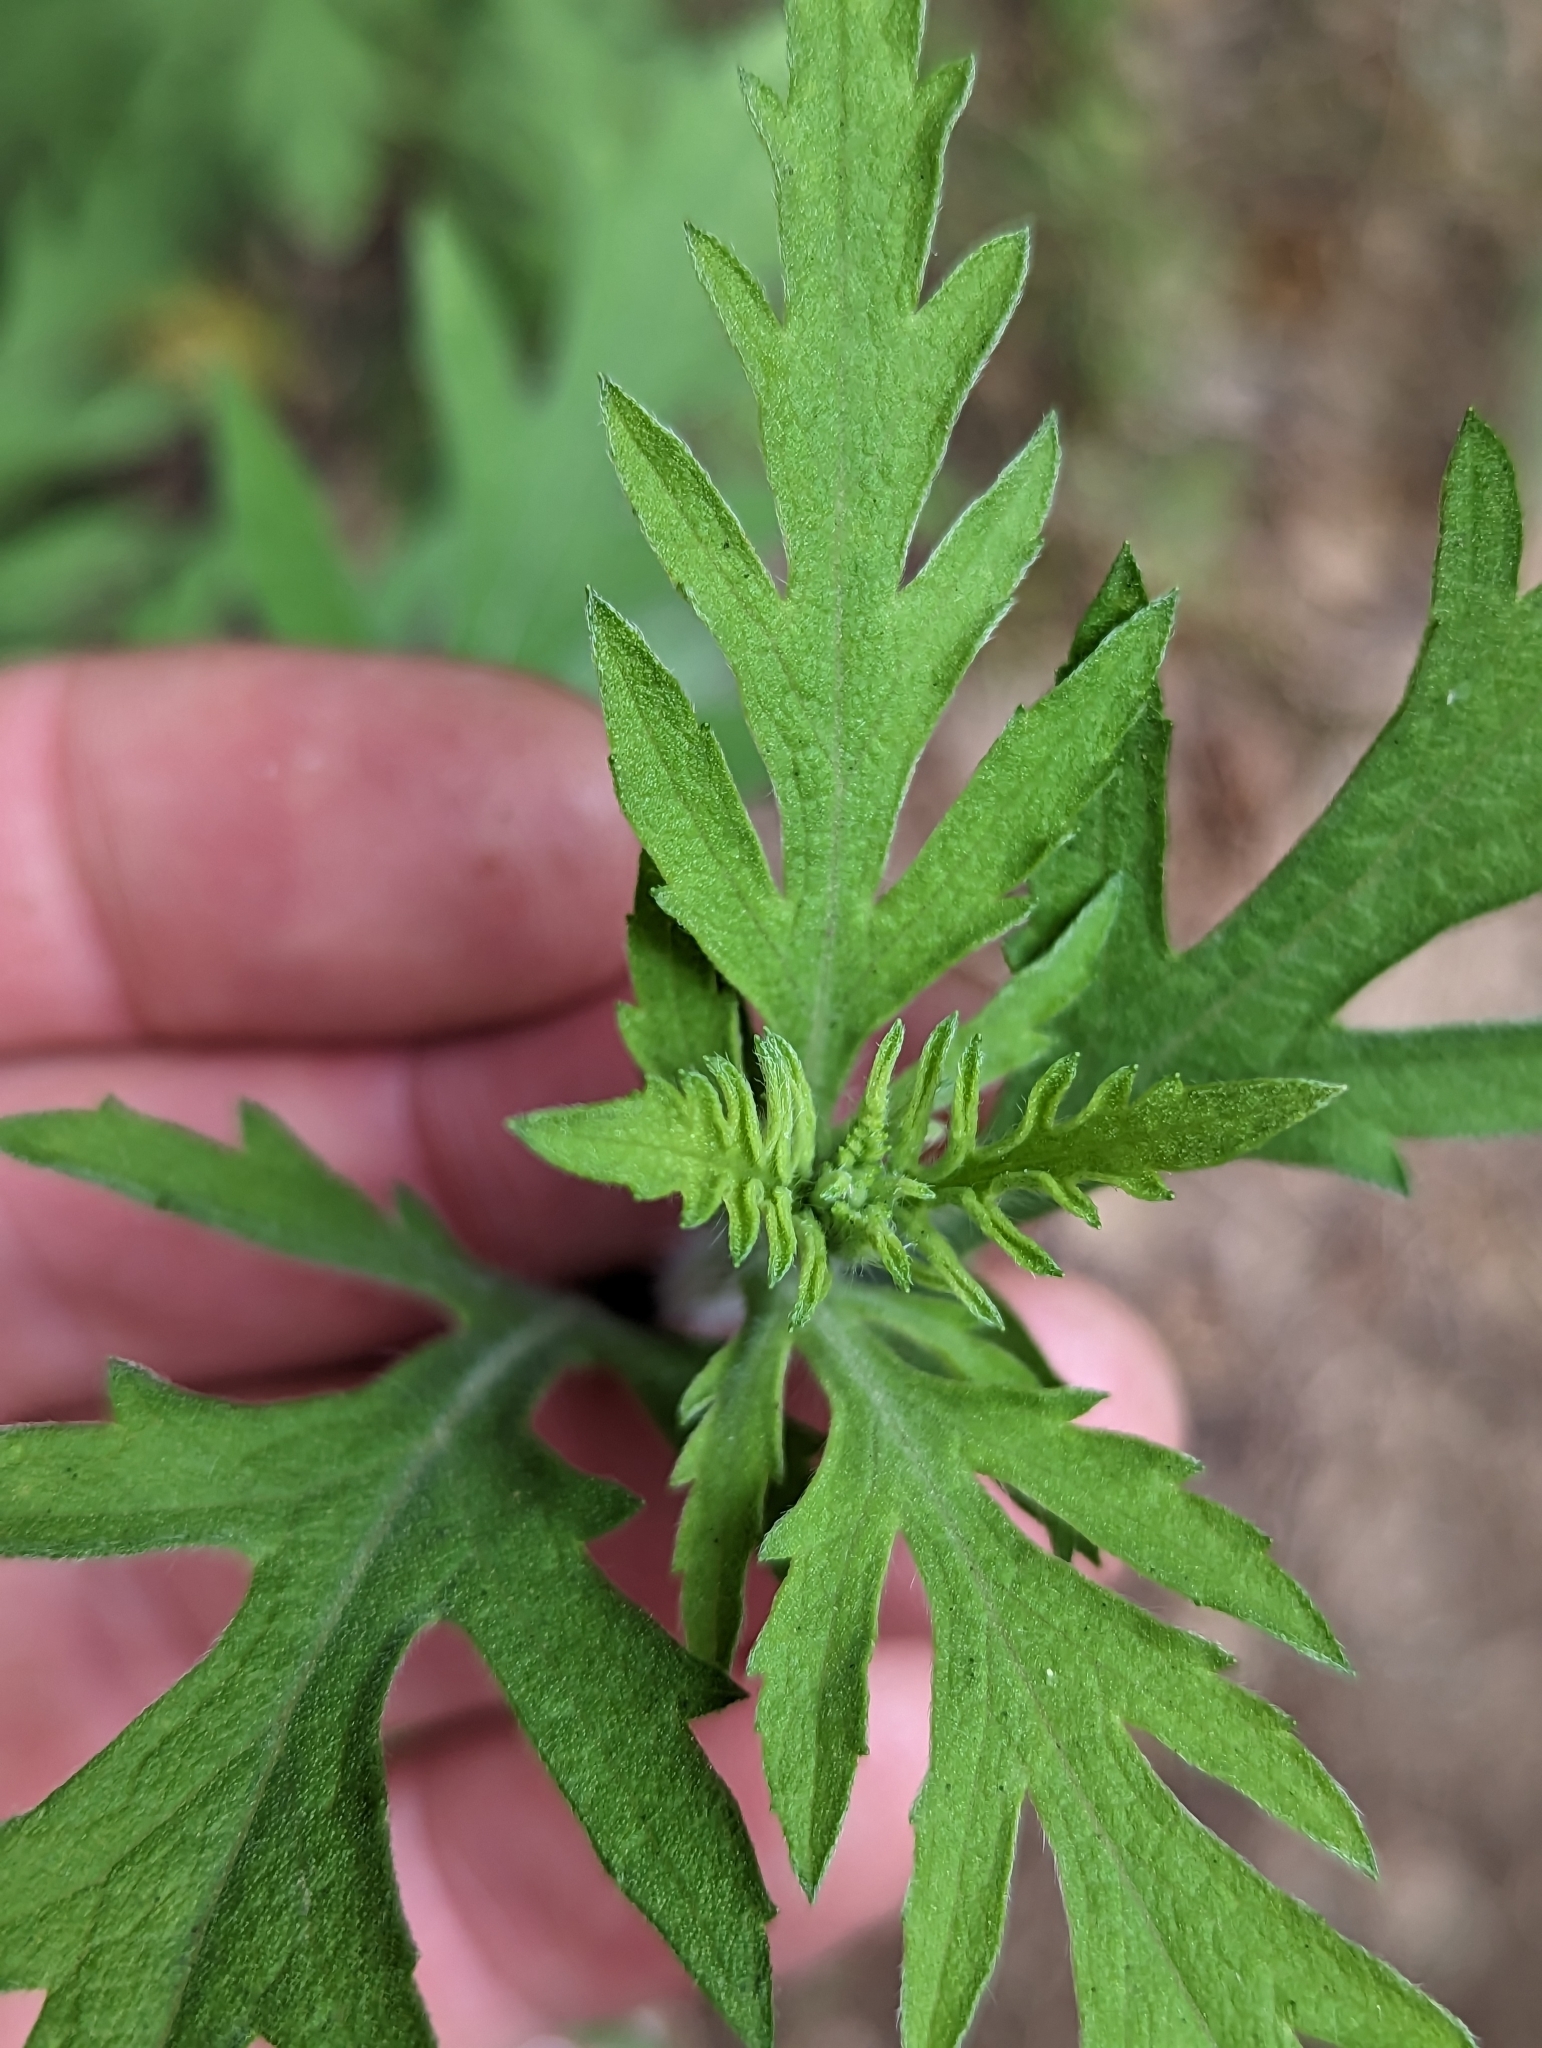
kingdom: Plantae
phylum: Tracheophyta
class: Magnoliopsida
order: Asterales
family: Asteraceae
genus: Ambrosia
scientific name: Ambrosia psilostachya
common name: Perennial ragweed
